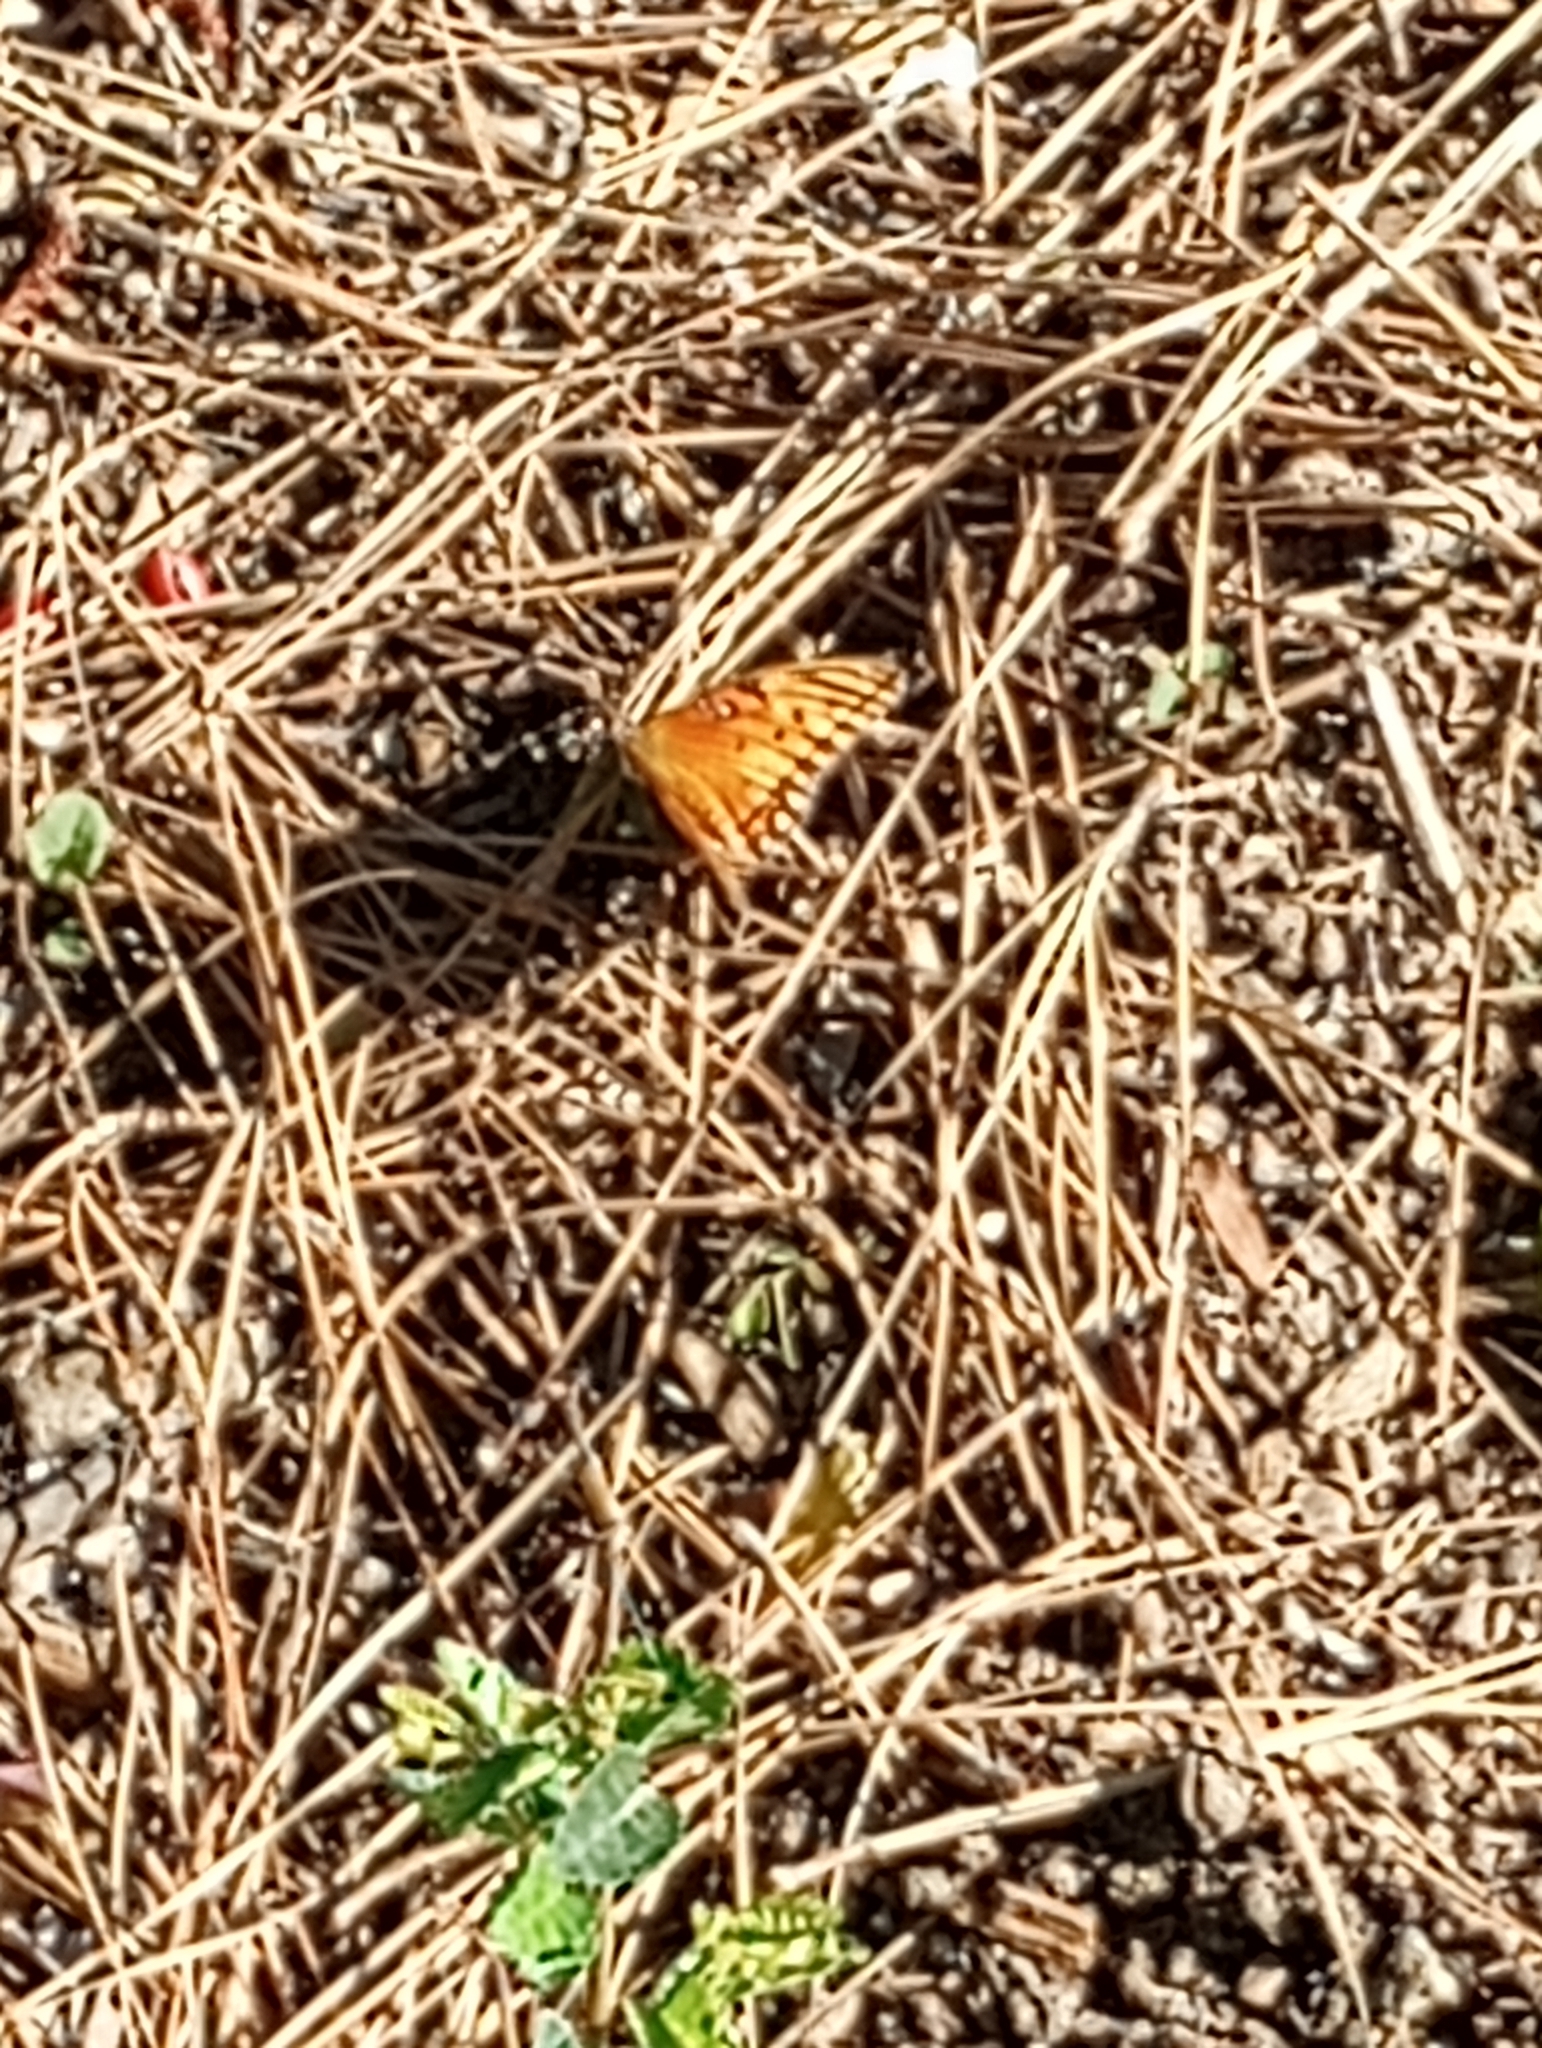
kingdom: Animalia
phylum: Arthropoda
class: Insecta
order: Lepidoptera
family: Nymphalidae
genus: Dione
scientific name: Dione vanillae
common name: Gulf fritillary
